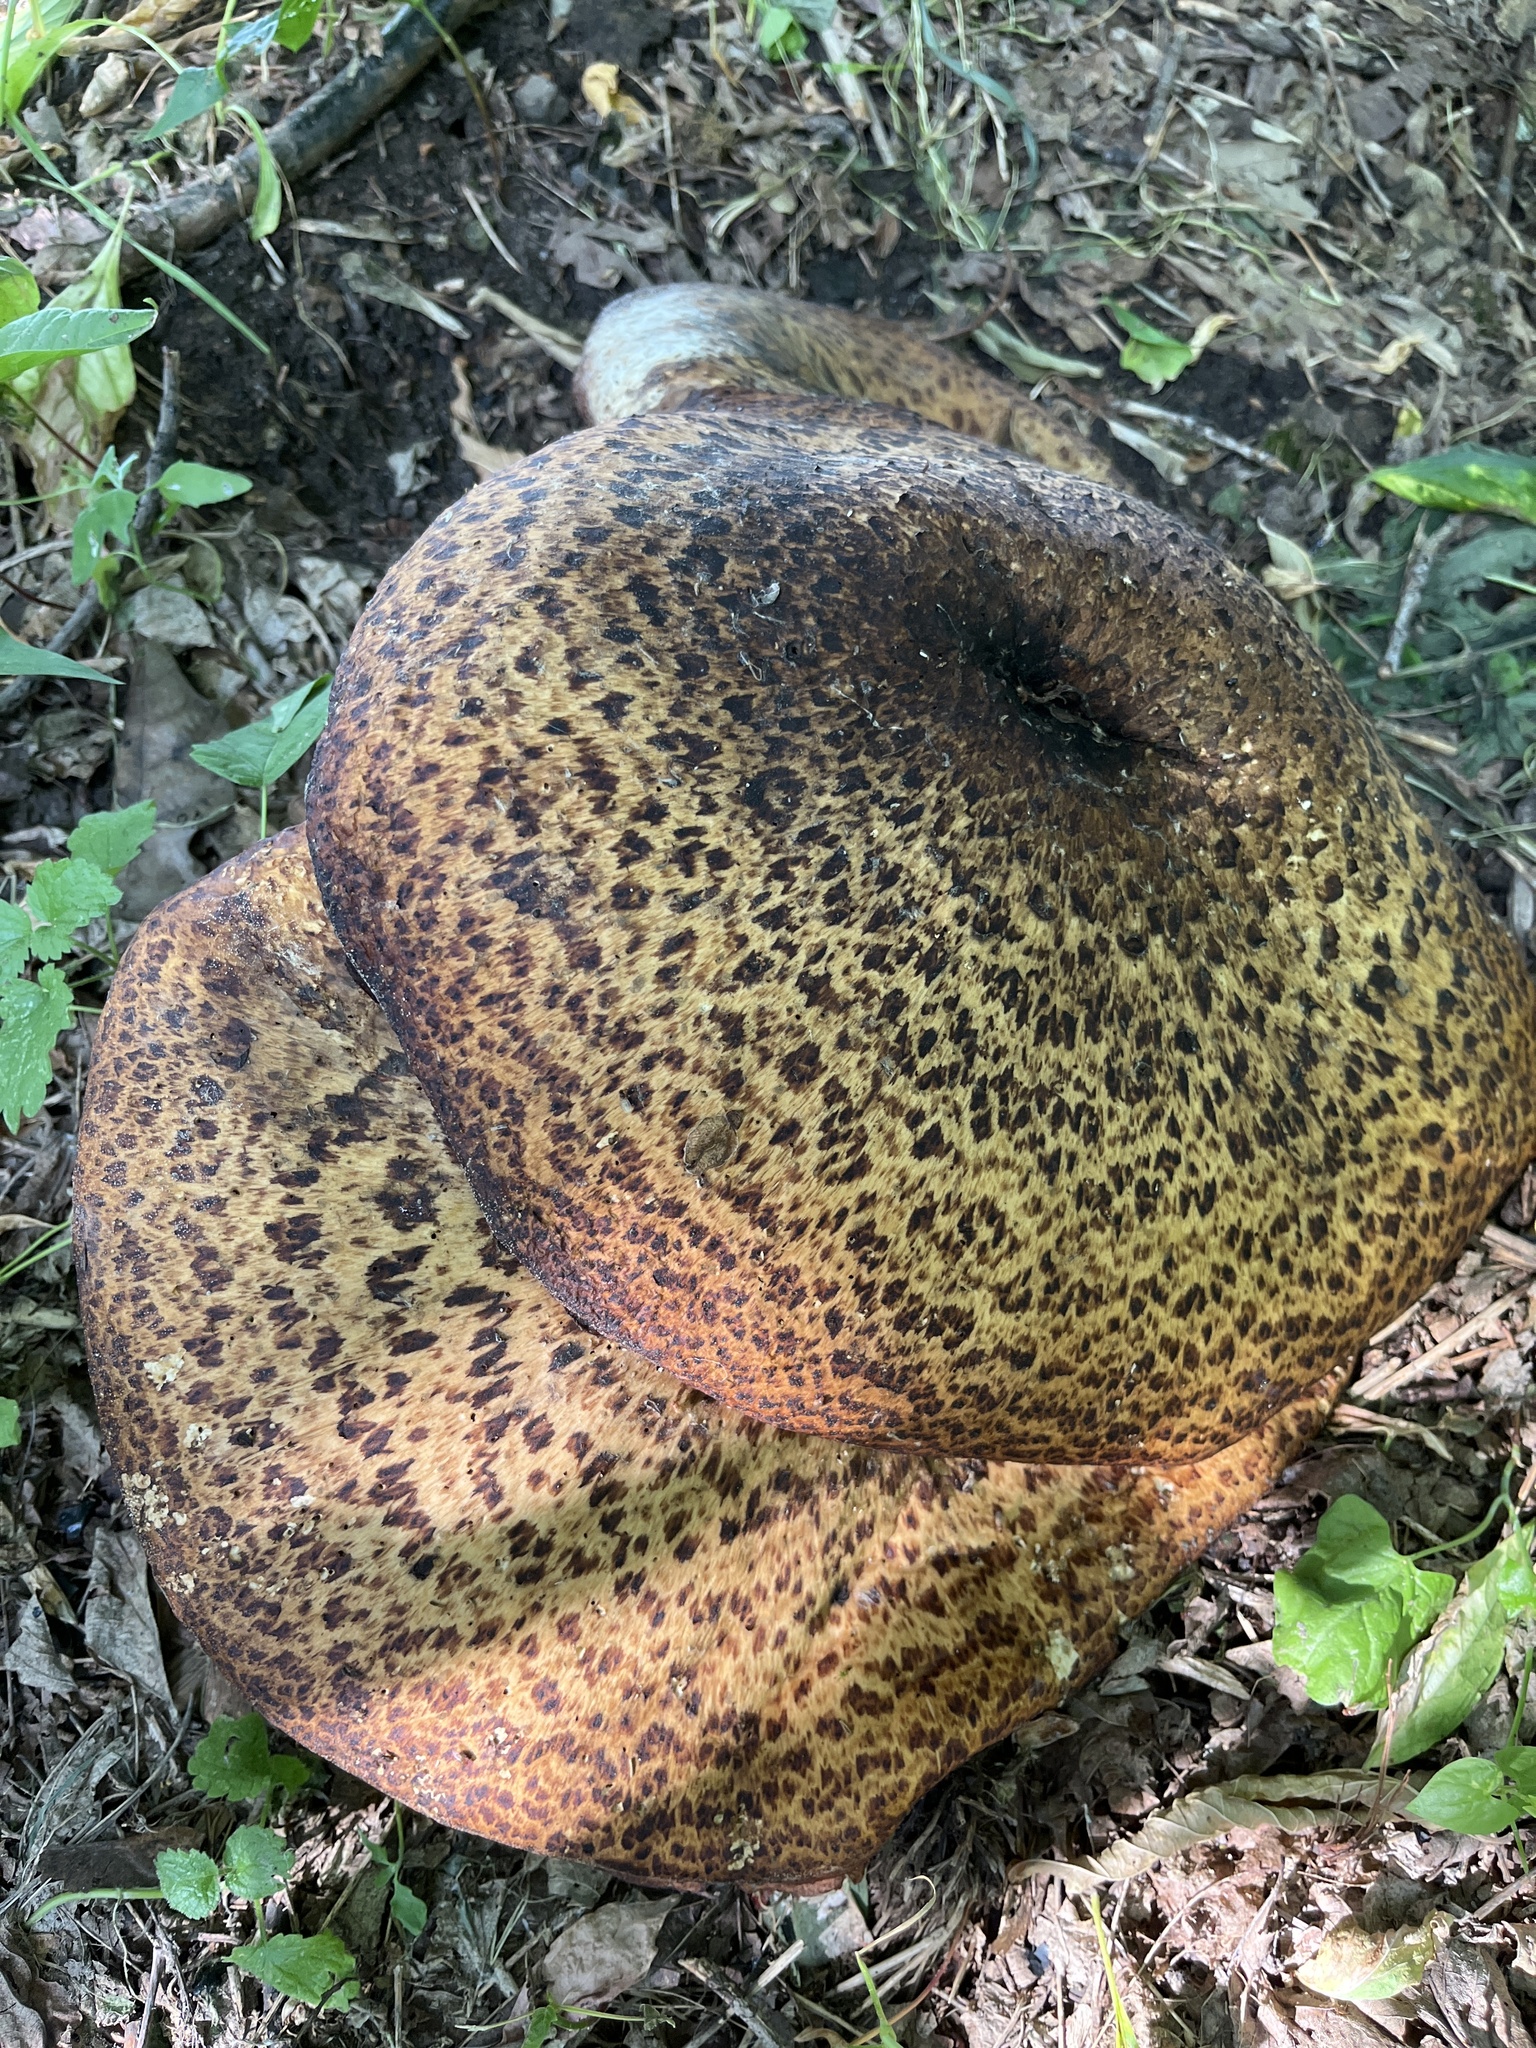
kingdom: Fungi
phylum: Basidiomycota
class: Agaricomycetes
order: Polyporales
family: Polyporaceae
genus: Cerioporus
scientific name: Cerioporus squamosus
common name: Dryad's saddle
